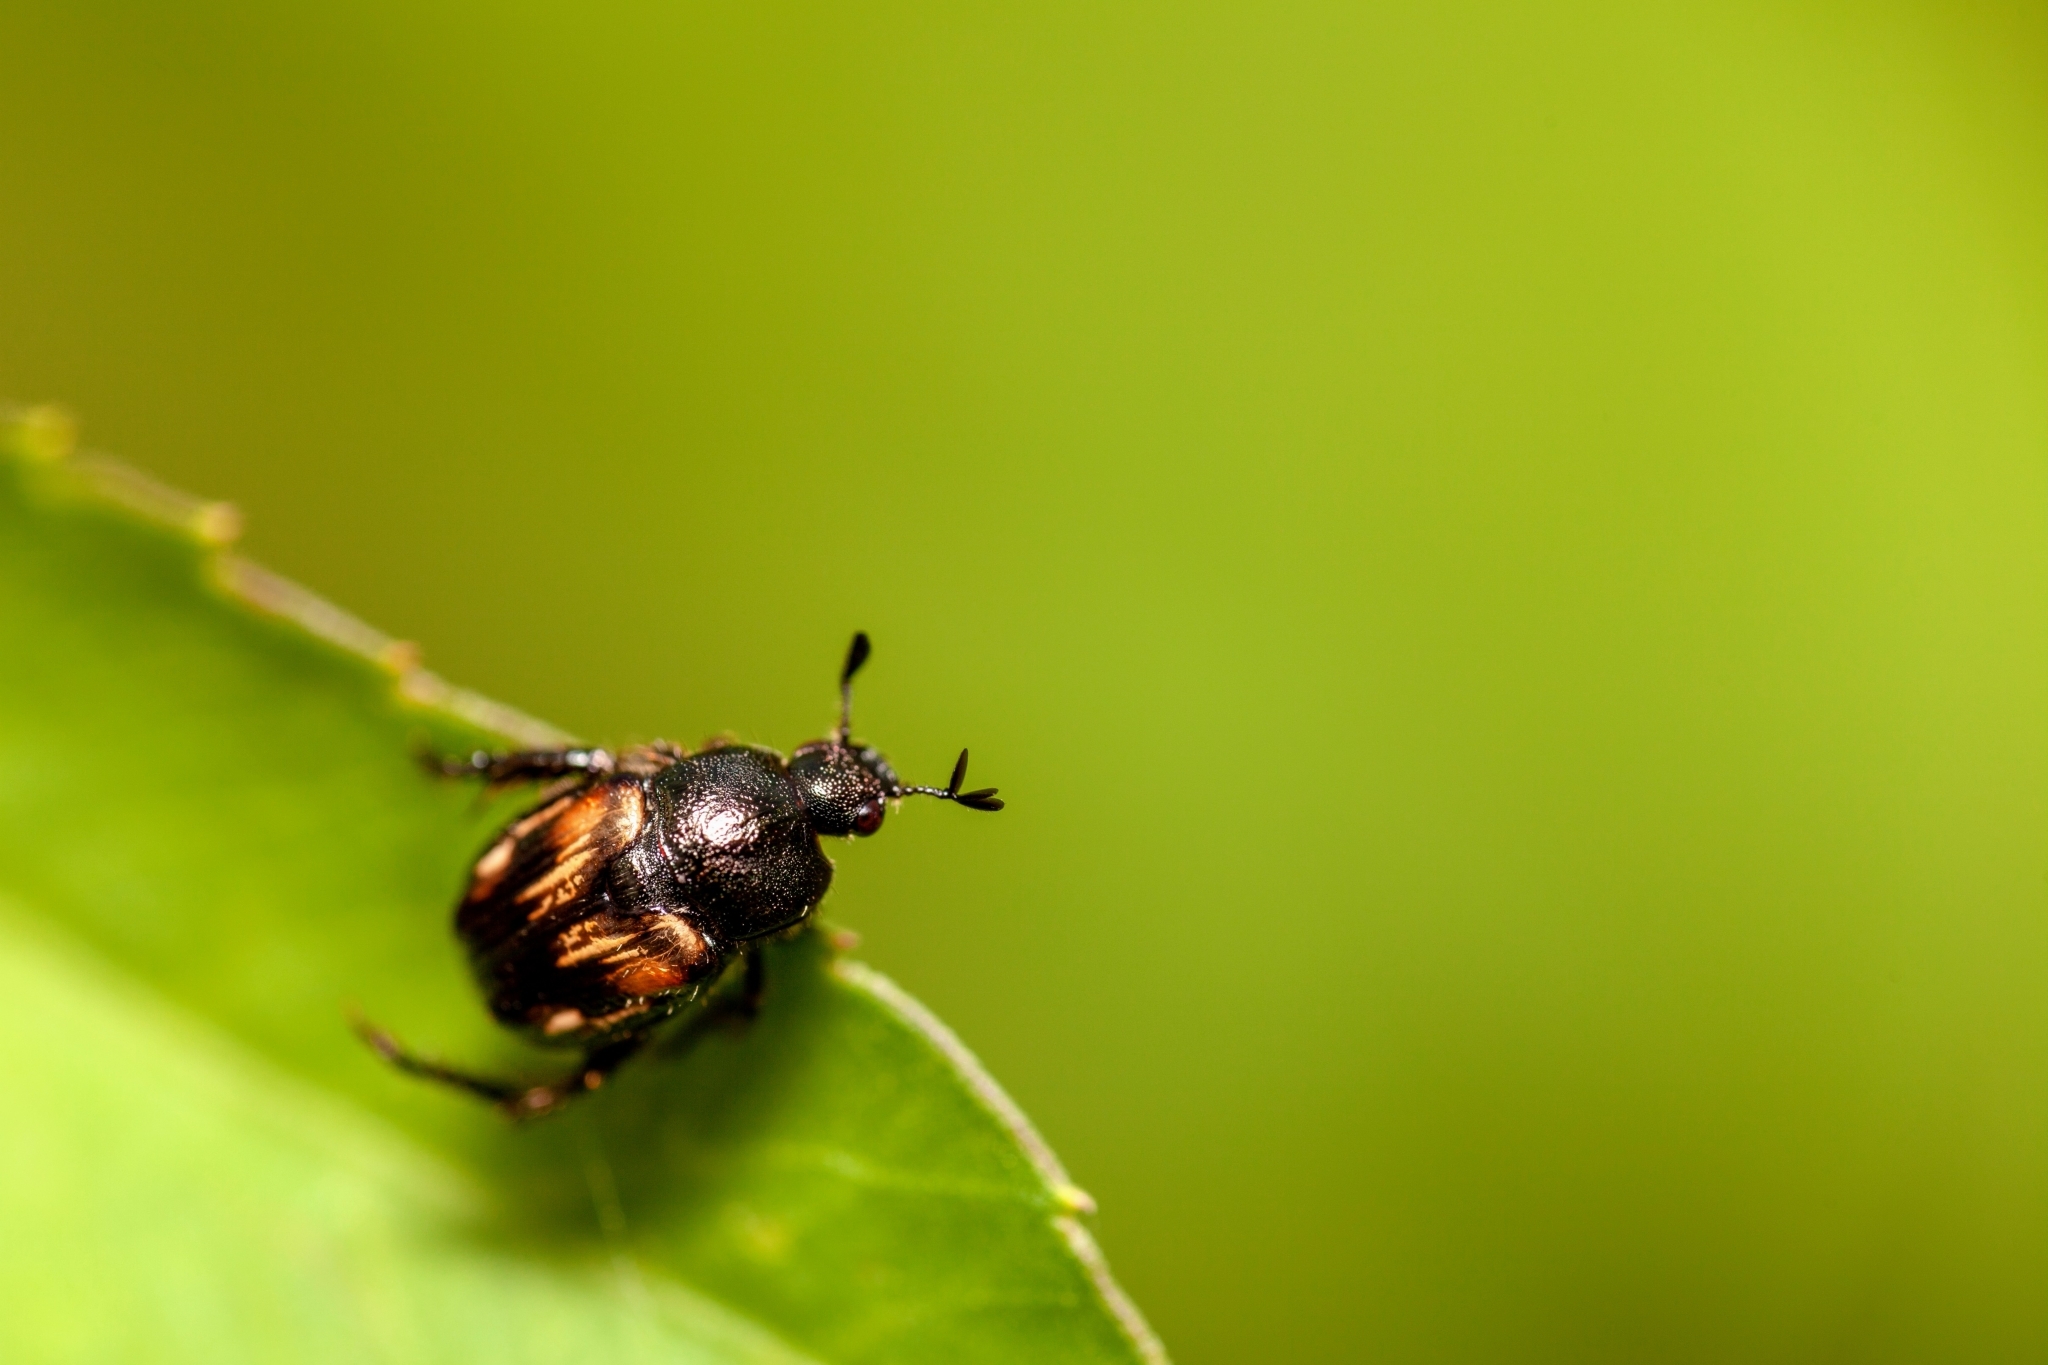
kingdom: Animalia
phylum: Arthropoda
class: Insecta
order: Coleoptera
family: Scarabaeidae
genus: Strigoderma
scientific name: Strigoderma pygmaea
